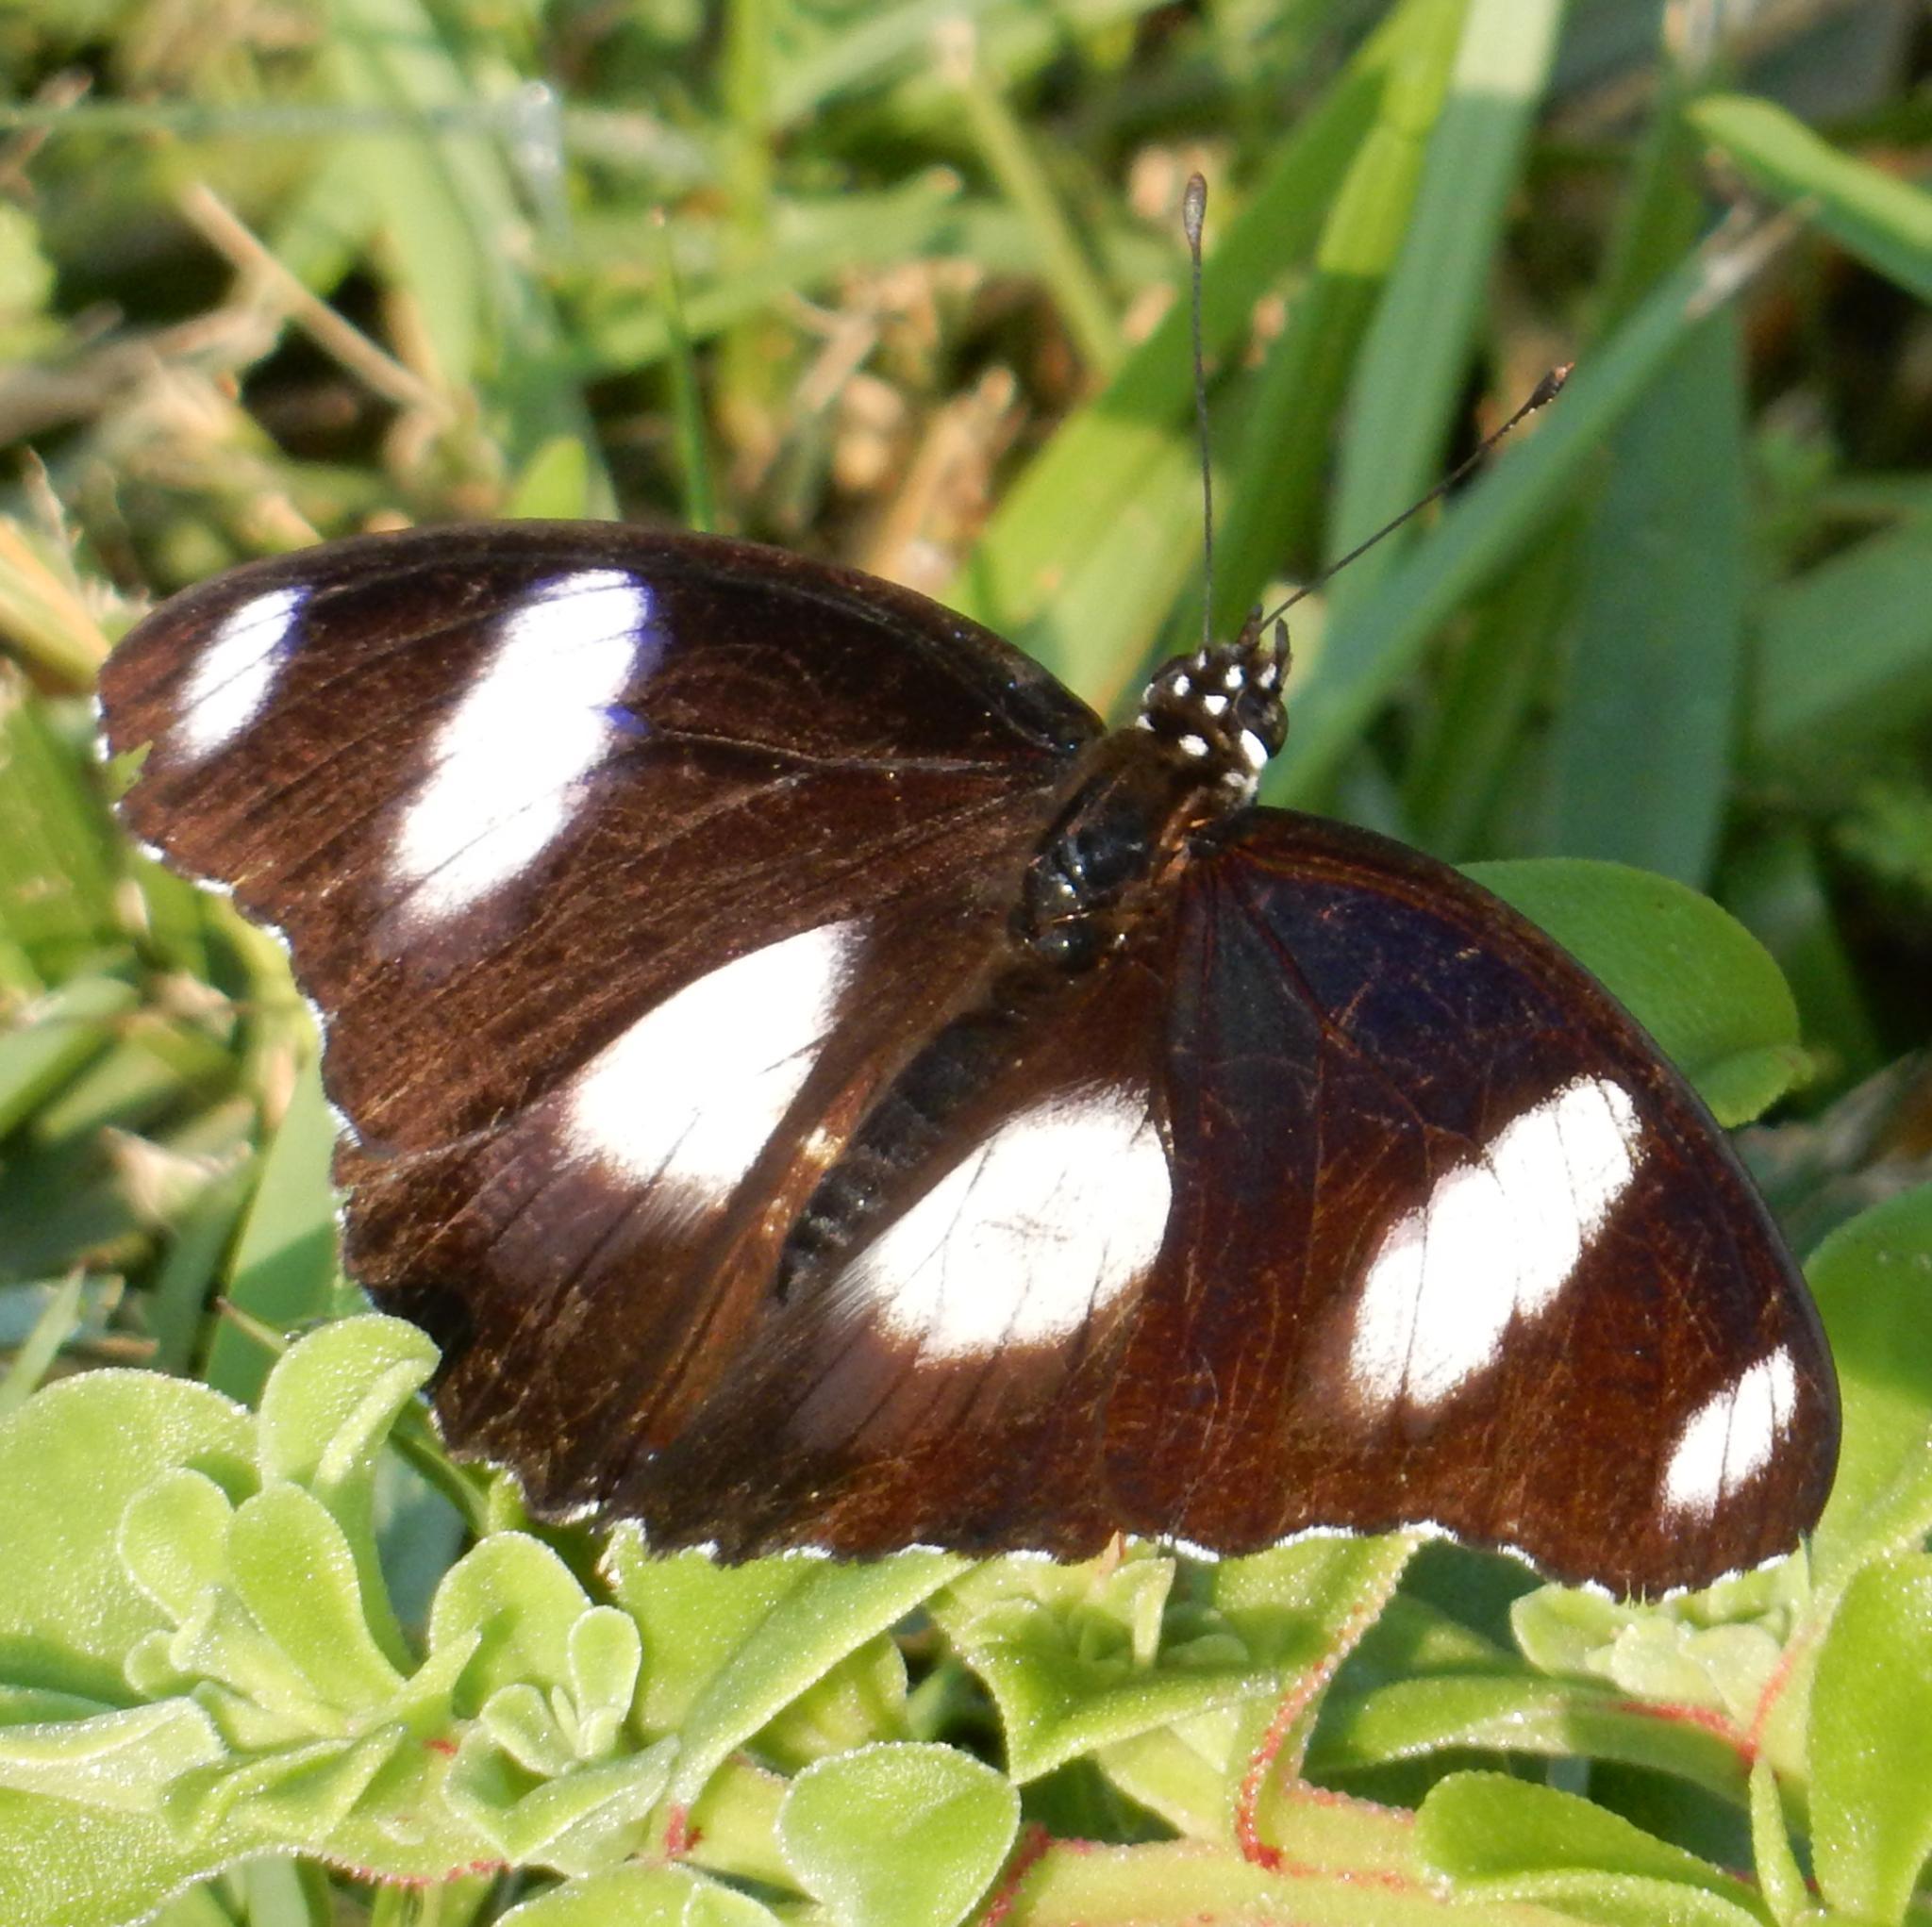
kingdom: Animalia
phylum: Arthropoda
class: Insecta
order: Lepidoptera
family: Nymphalidae
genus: Hypolimnas
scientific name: Hypolimnas misippus
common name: False plain tiger
